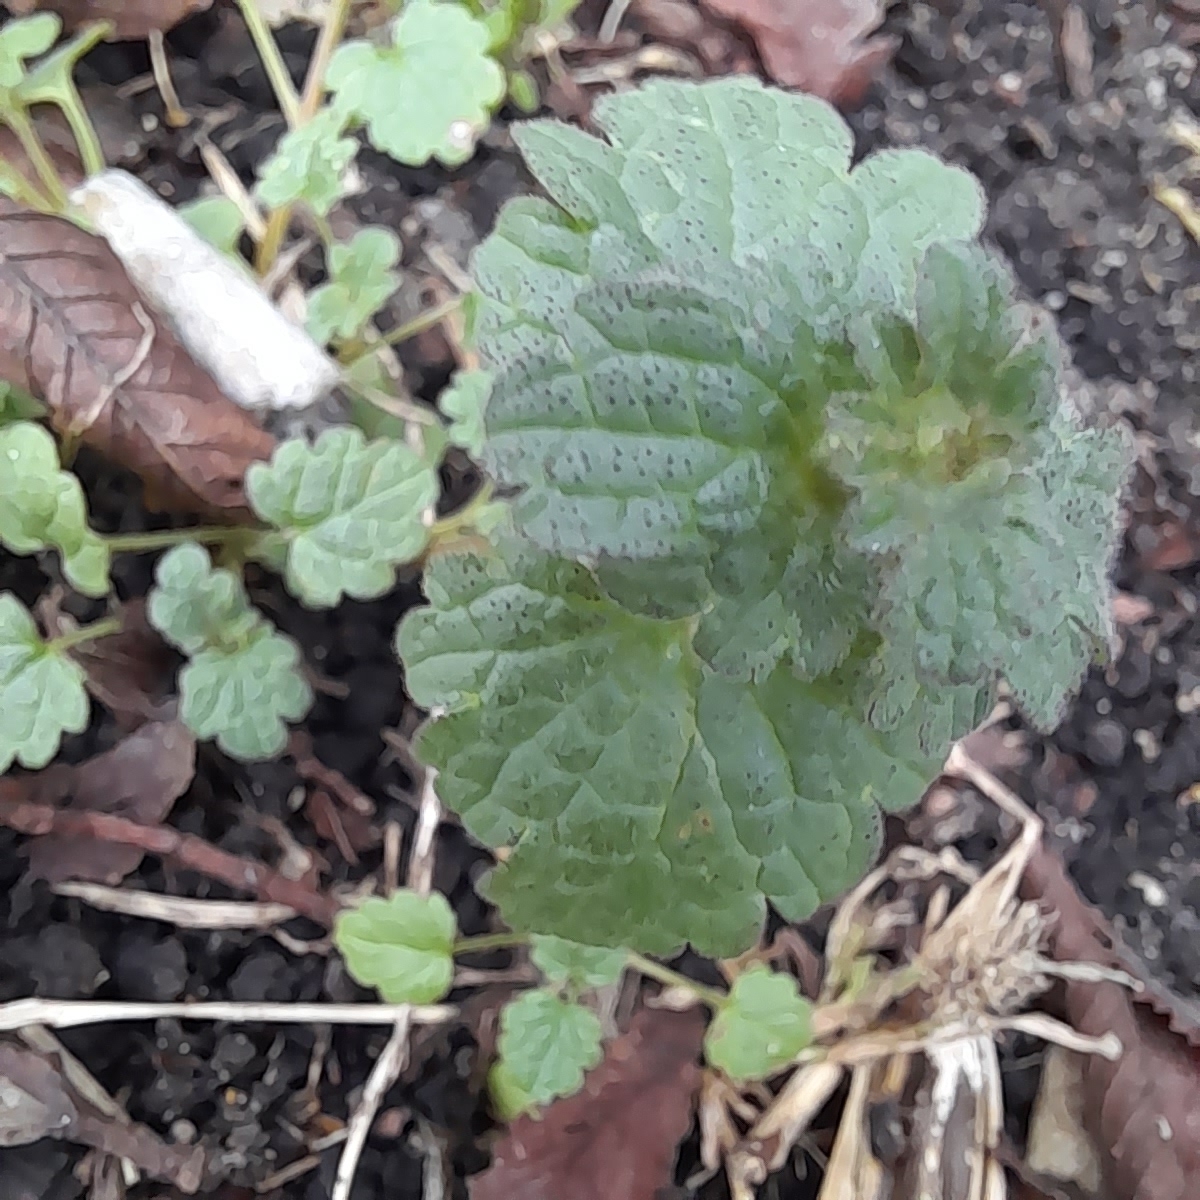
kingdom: Plantae
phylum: Tracheophyta
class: Magnoliopsida
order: Lamiales
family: Lamiaceae
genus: Lamium
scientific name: Lamium amplexicaule
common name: Henbit dead-nettle
